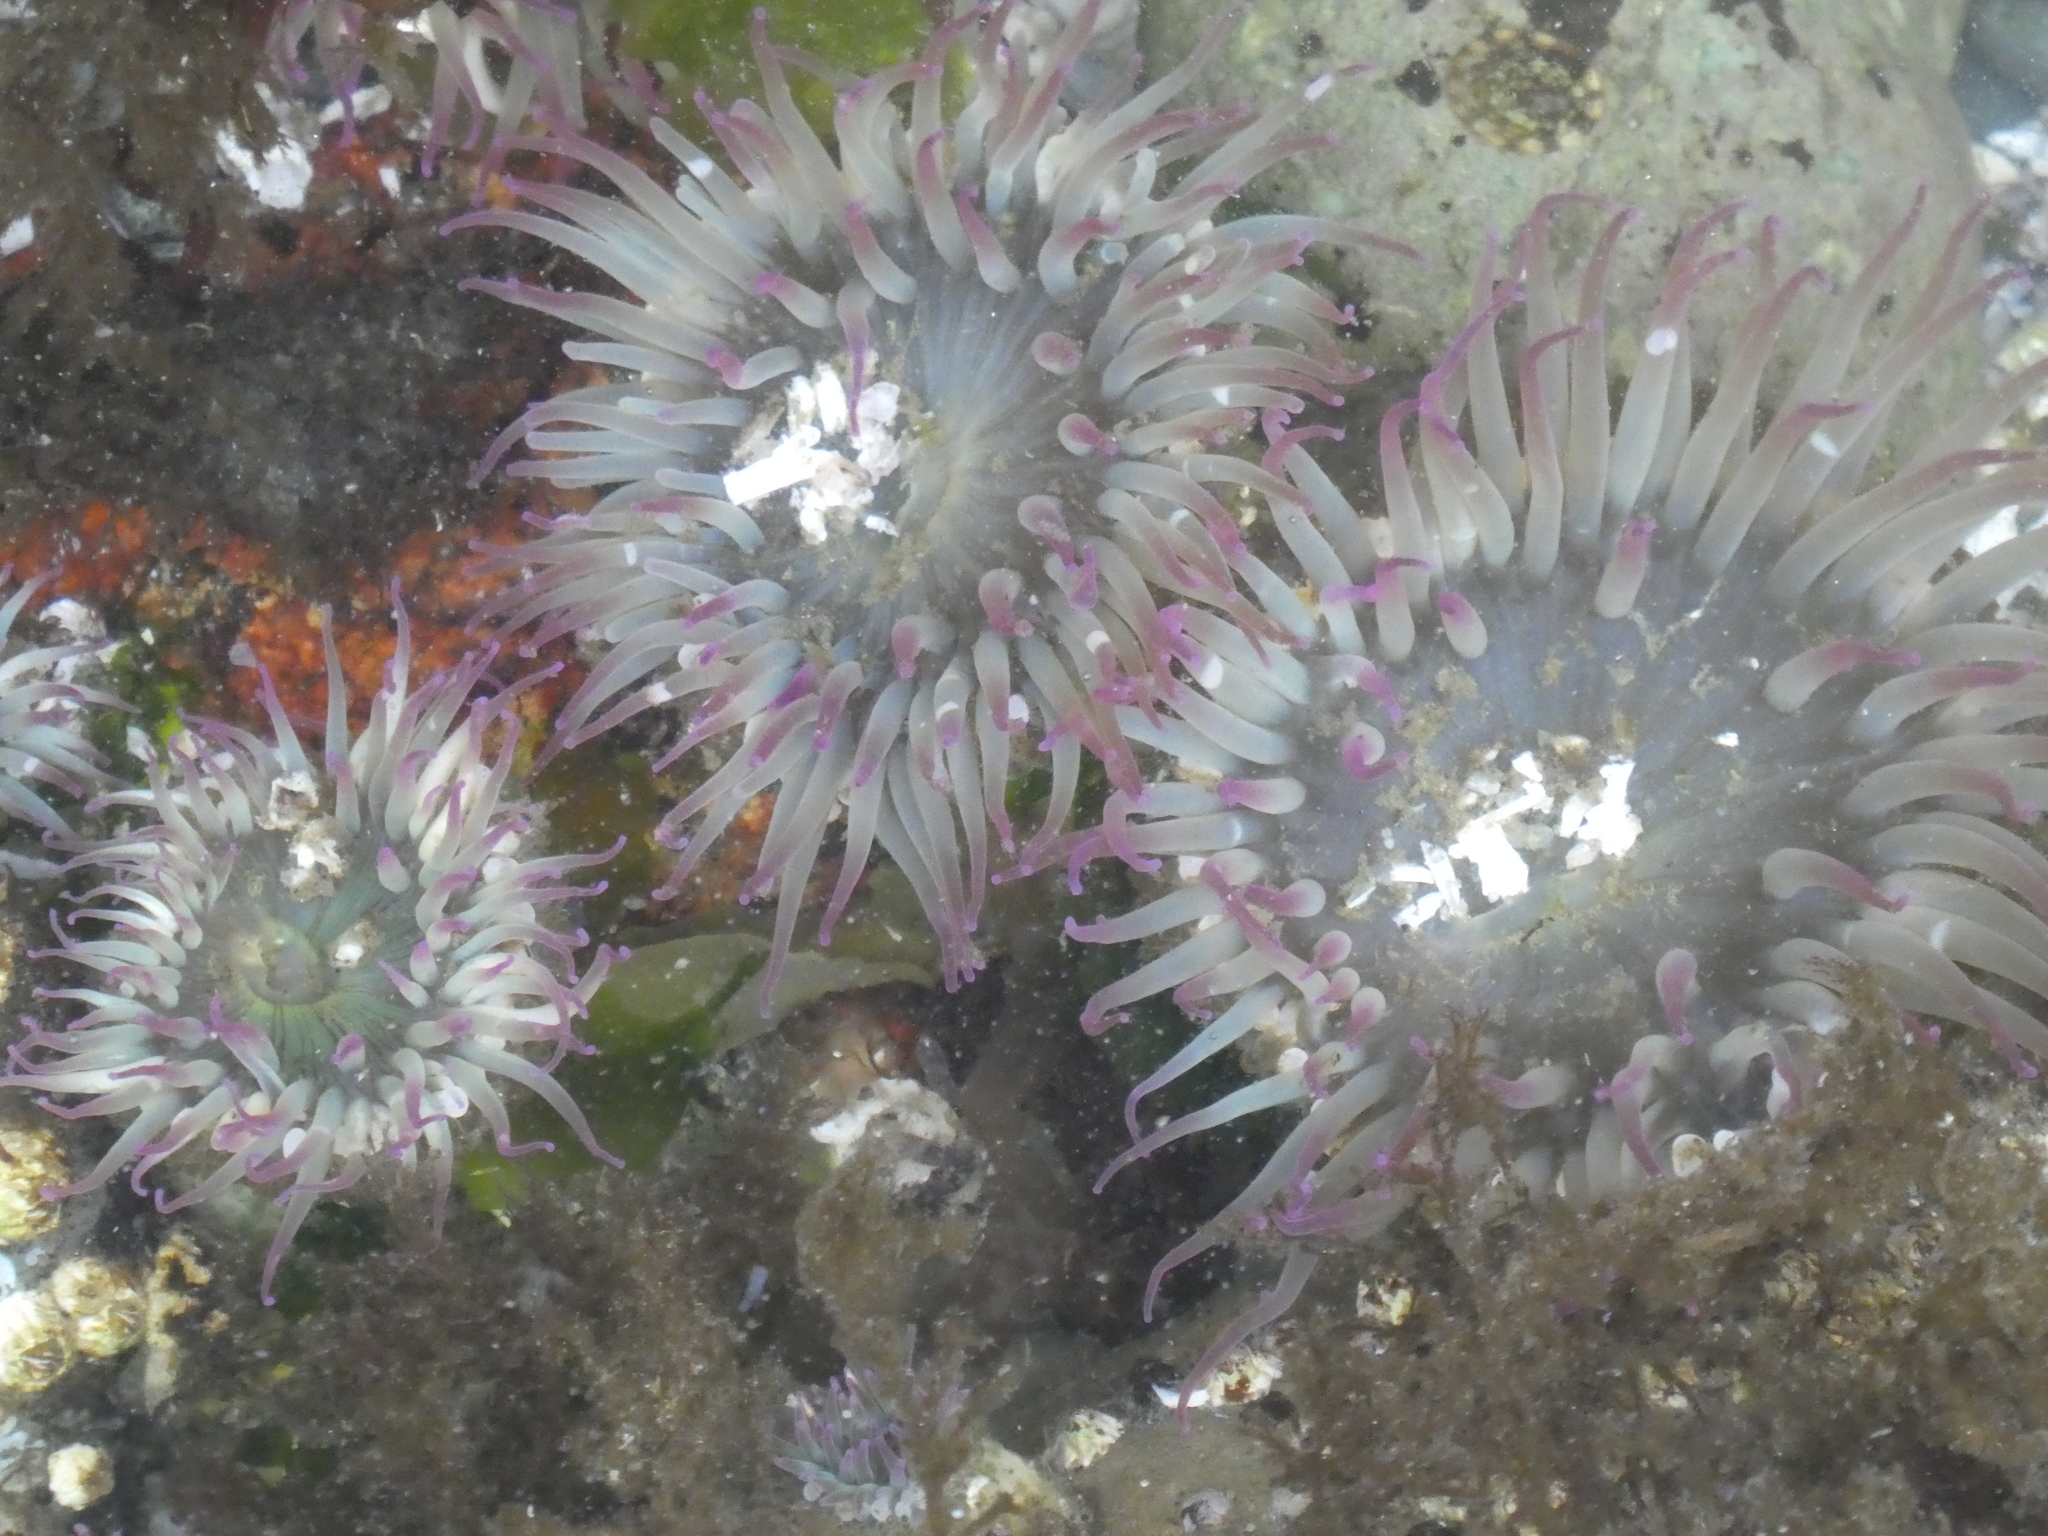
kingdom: Animalia
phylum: Cnidaria
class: Anthozoa
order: Actiniaria
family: Actiniidae
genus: Anthopleura
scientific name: Anthopleura elegantissima
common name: Clonal anemone
